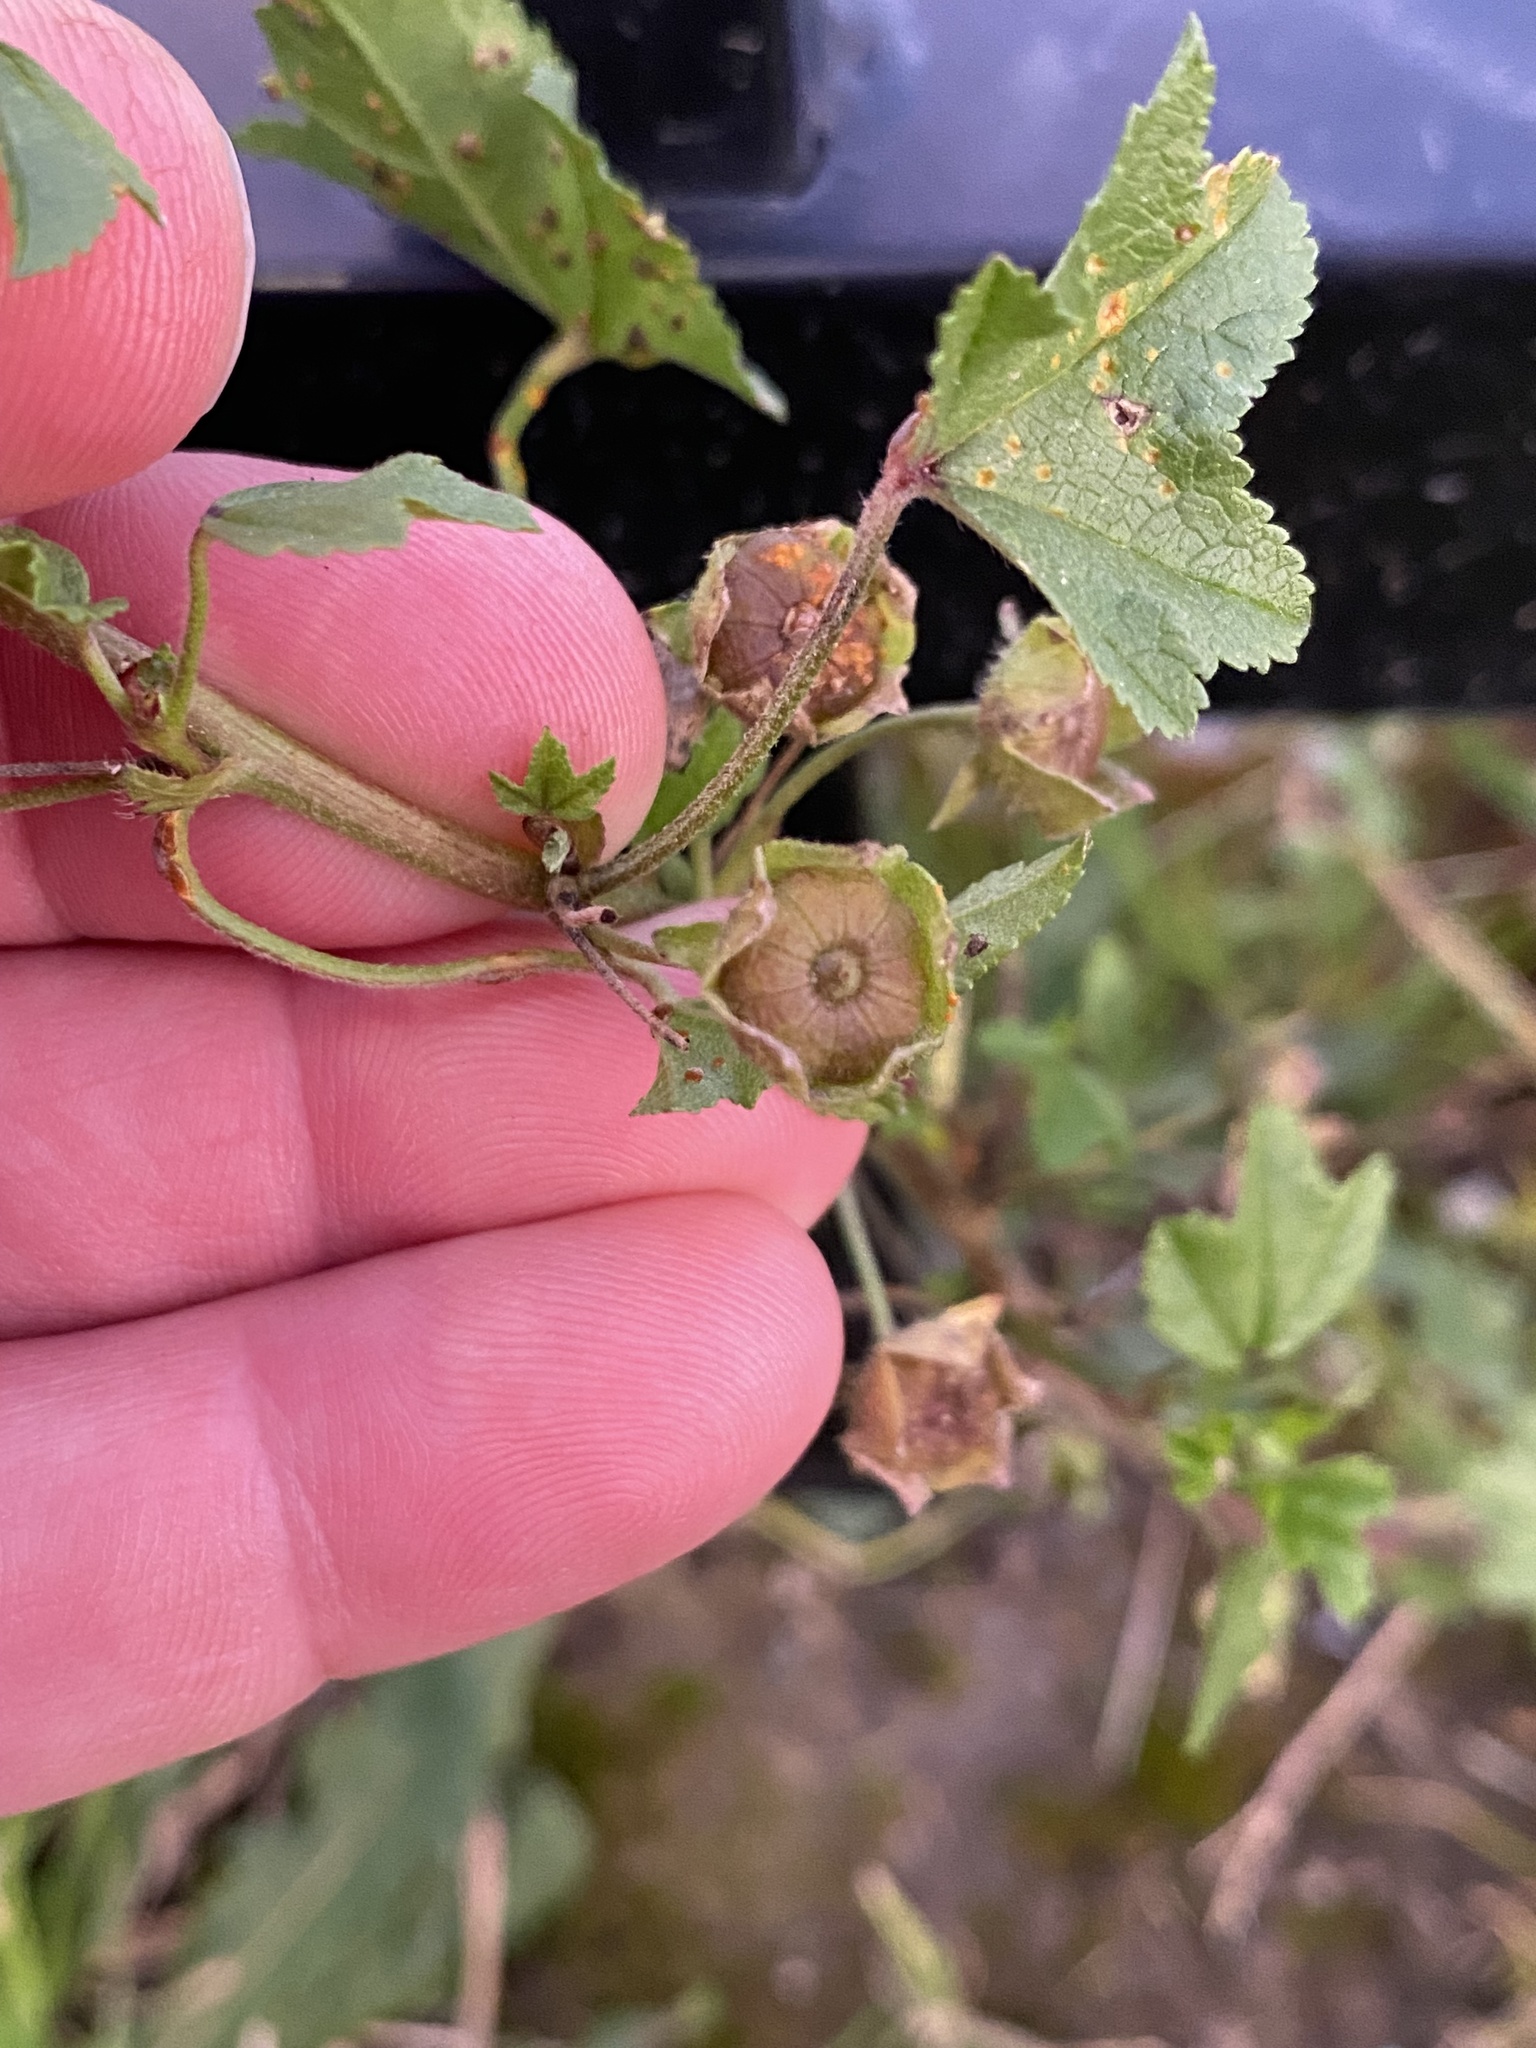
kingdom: Plantae
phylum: Tracheophyta
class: Magnoliopsida
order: Malvales
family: Malvaceae
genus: Malva
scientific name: Malva sylvestris
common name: Common mallow
